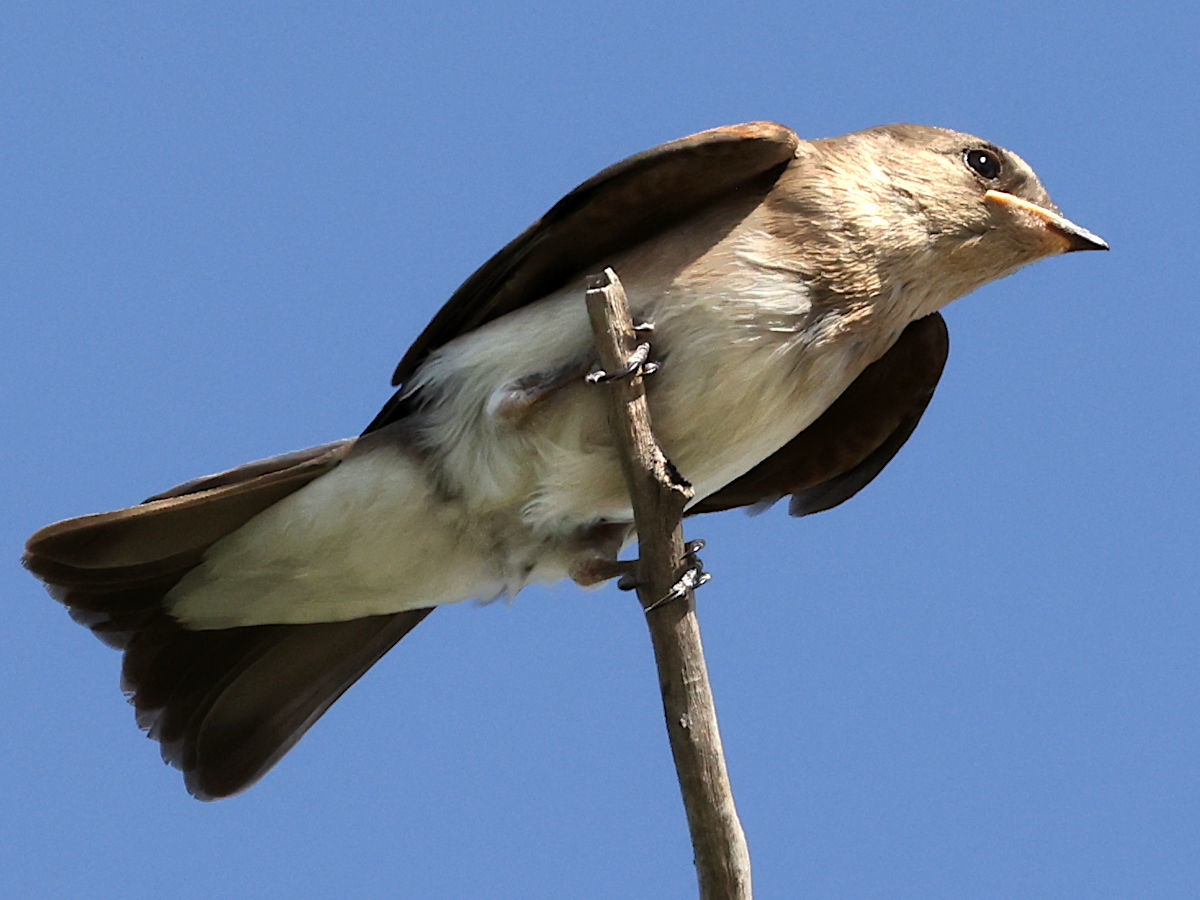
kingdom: Animalia
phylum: Chordata
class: Aves
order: Passeriformes
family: Hirundinidae
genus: Stelgidopteryx
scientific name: Stelgidopteryx serripennis
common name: Northern rough-winged swallow
